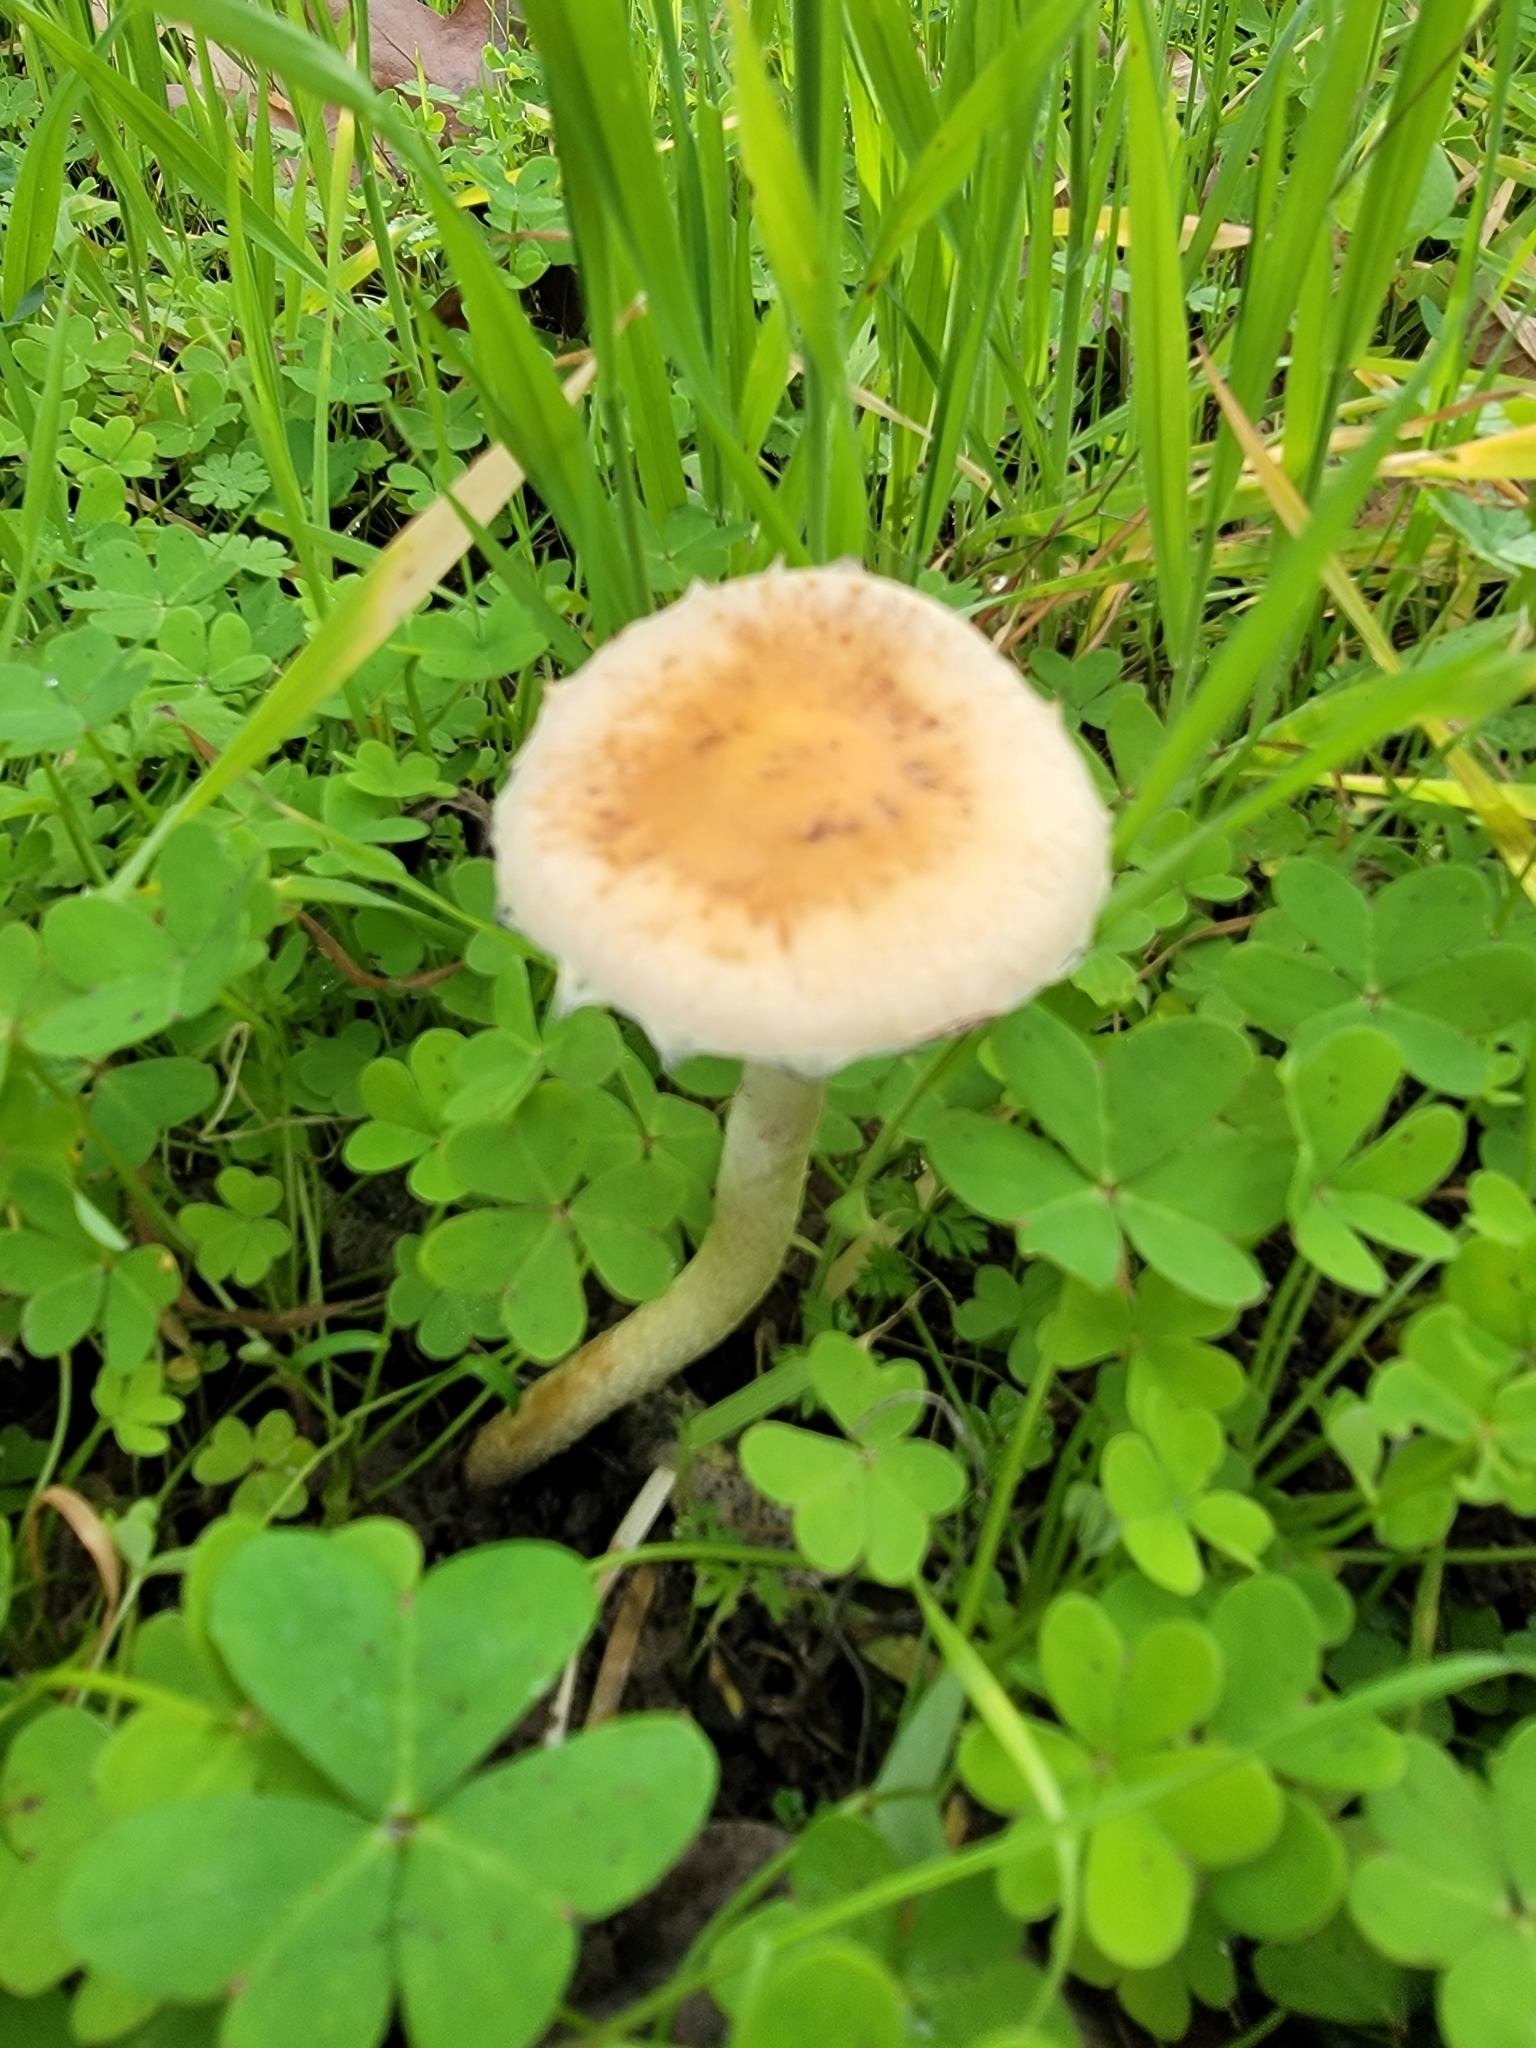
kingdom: Fungi
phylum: Basidiomycota
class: Agaricomycetes
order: Agaricales
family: Strophariaceae
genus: Leratiomyces
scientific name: Leratiomyces percevalii
